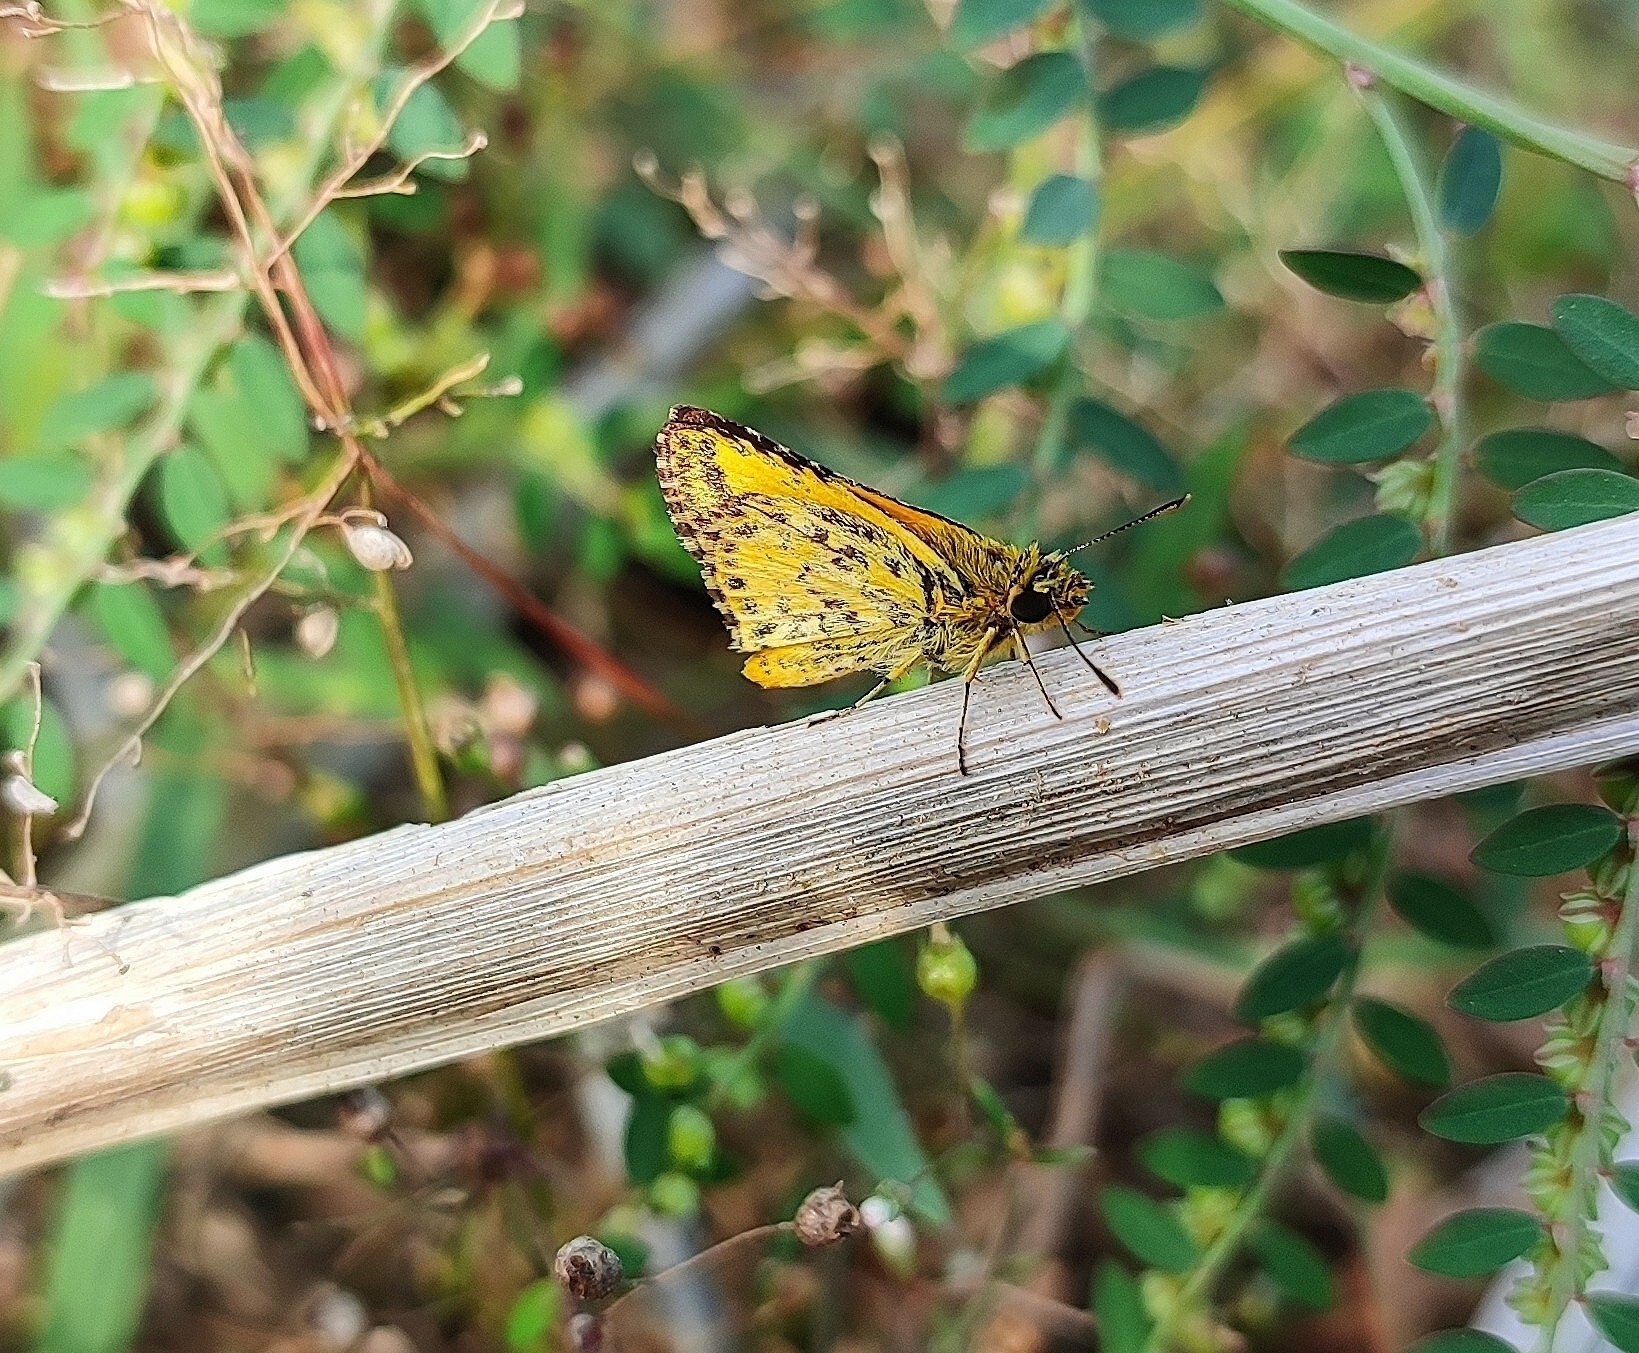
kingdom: Animalia
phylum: Arthropoda
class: Insecta
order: Lepidoptera
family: Hesperiidae
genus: Ampittia
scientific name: Ampittia dioscorides
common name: Common bush hopper
